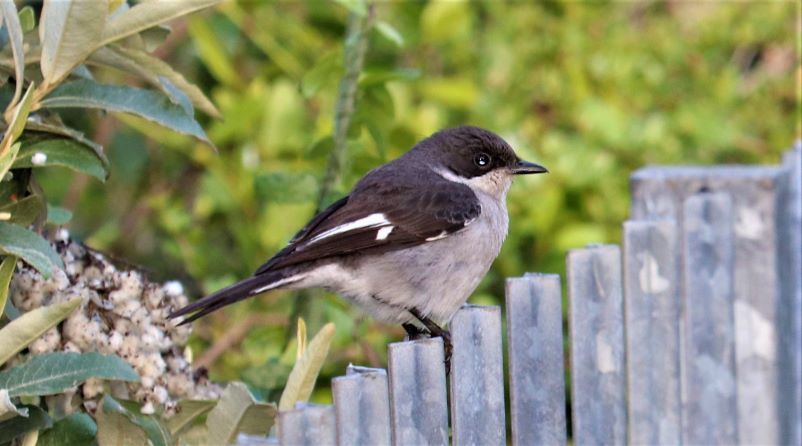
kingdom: Animalia
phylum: Chordata
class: Aves
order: Passeriformes
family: Muscicapidae
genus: Sigelus
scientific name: Sigelus silens
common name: Fiscal flycatcher
